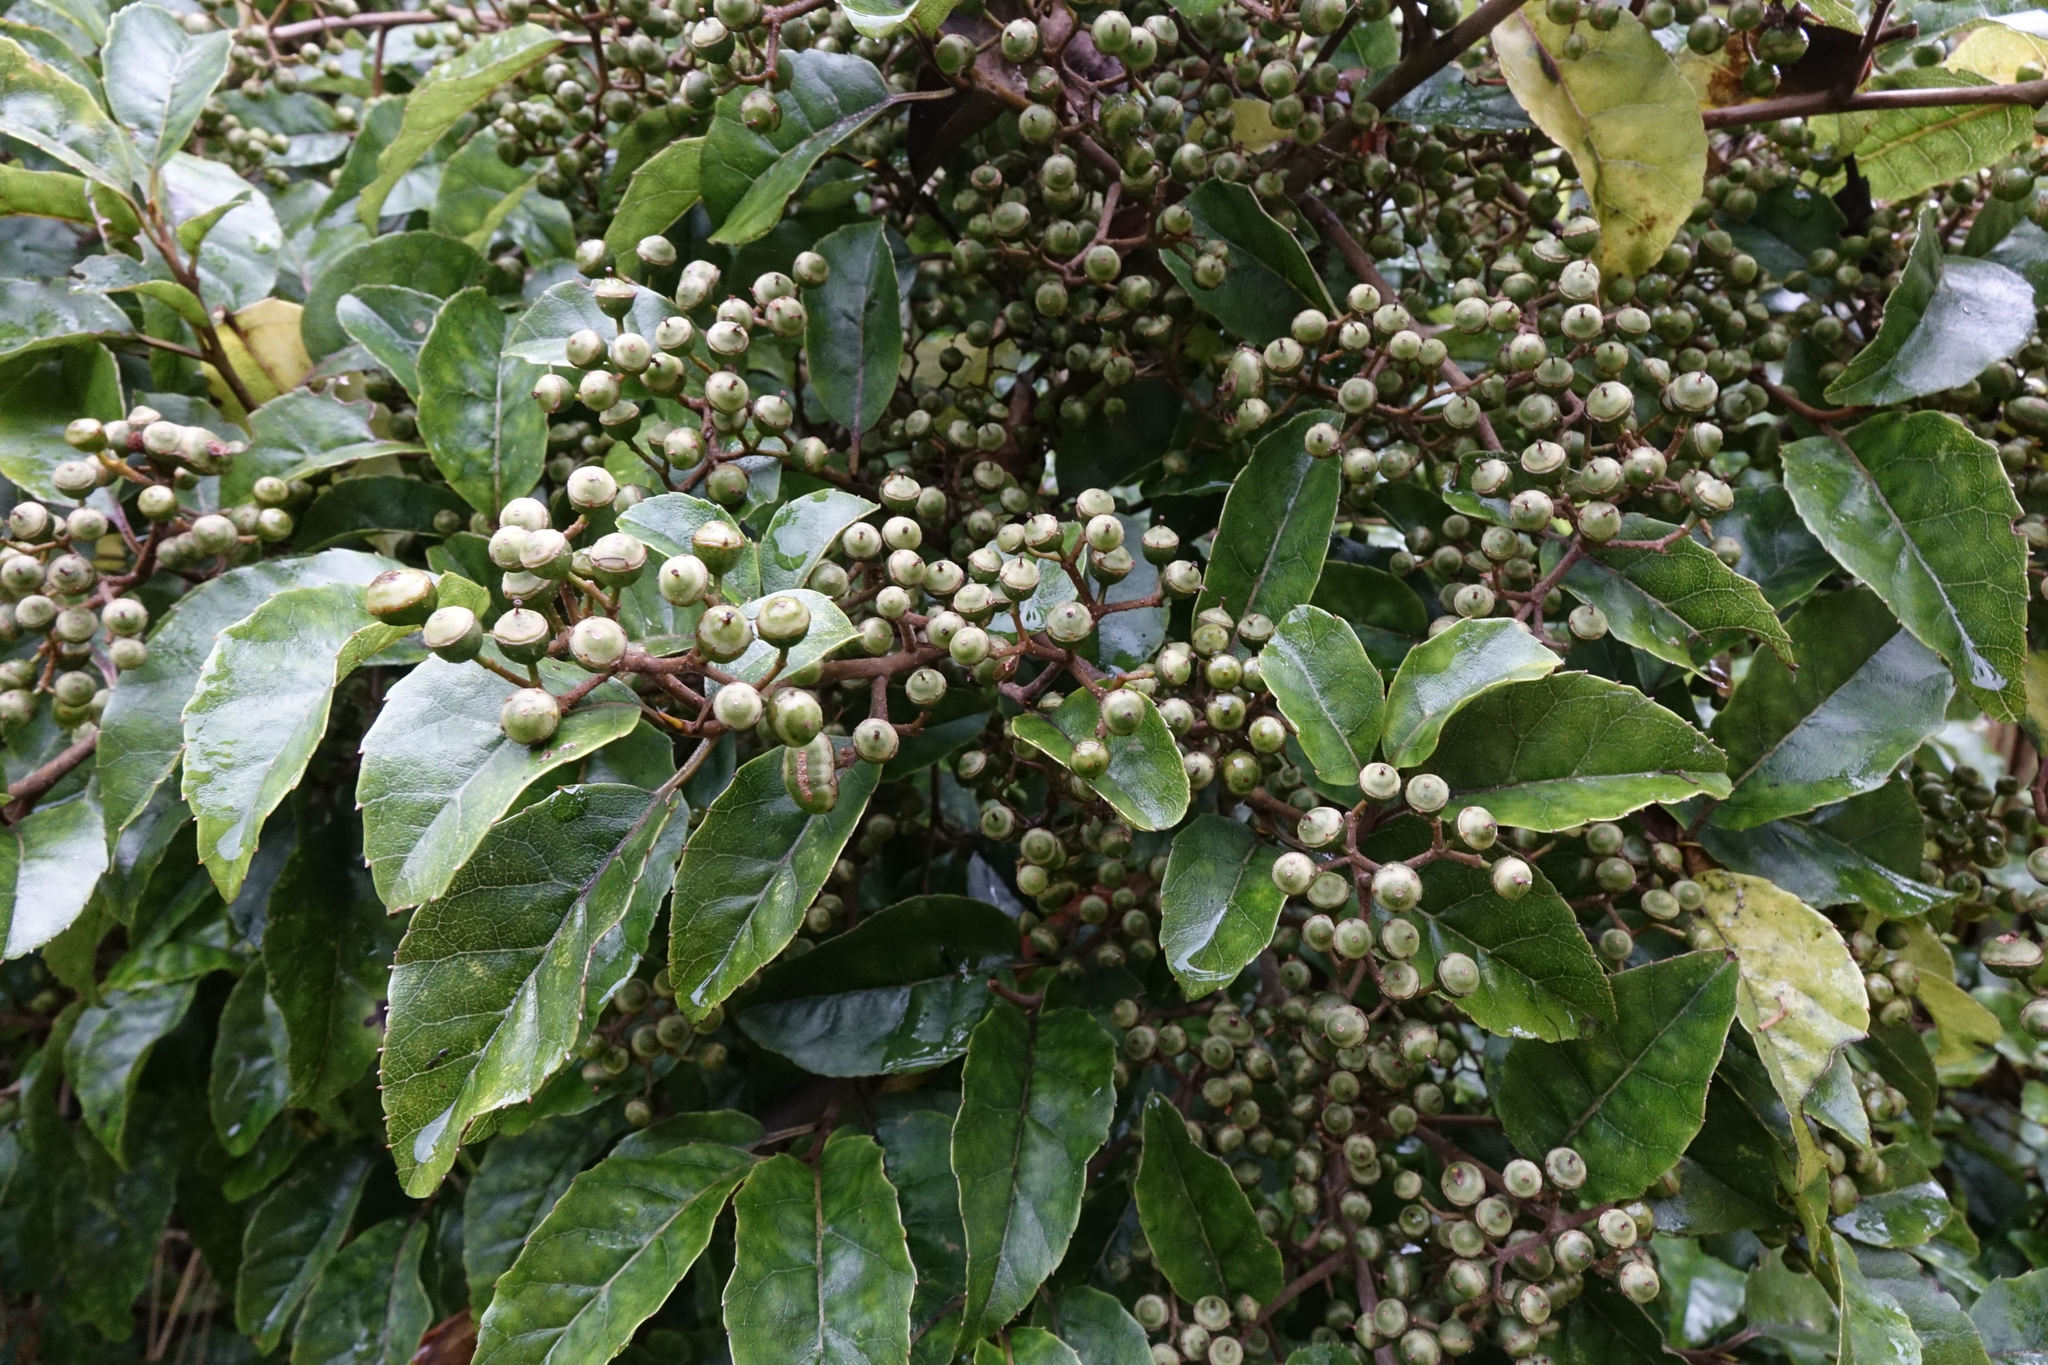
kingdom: Plantae
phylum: Tracheophyta
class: Magnoliopsida
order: Asterales
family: Rousseaceae
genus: Carpodetus
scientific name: Carpodetus serratus
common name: White mapau
